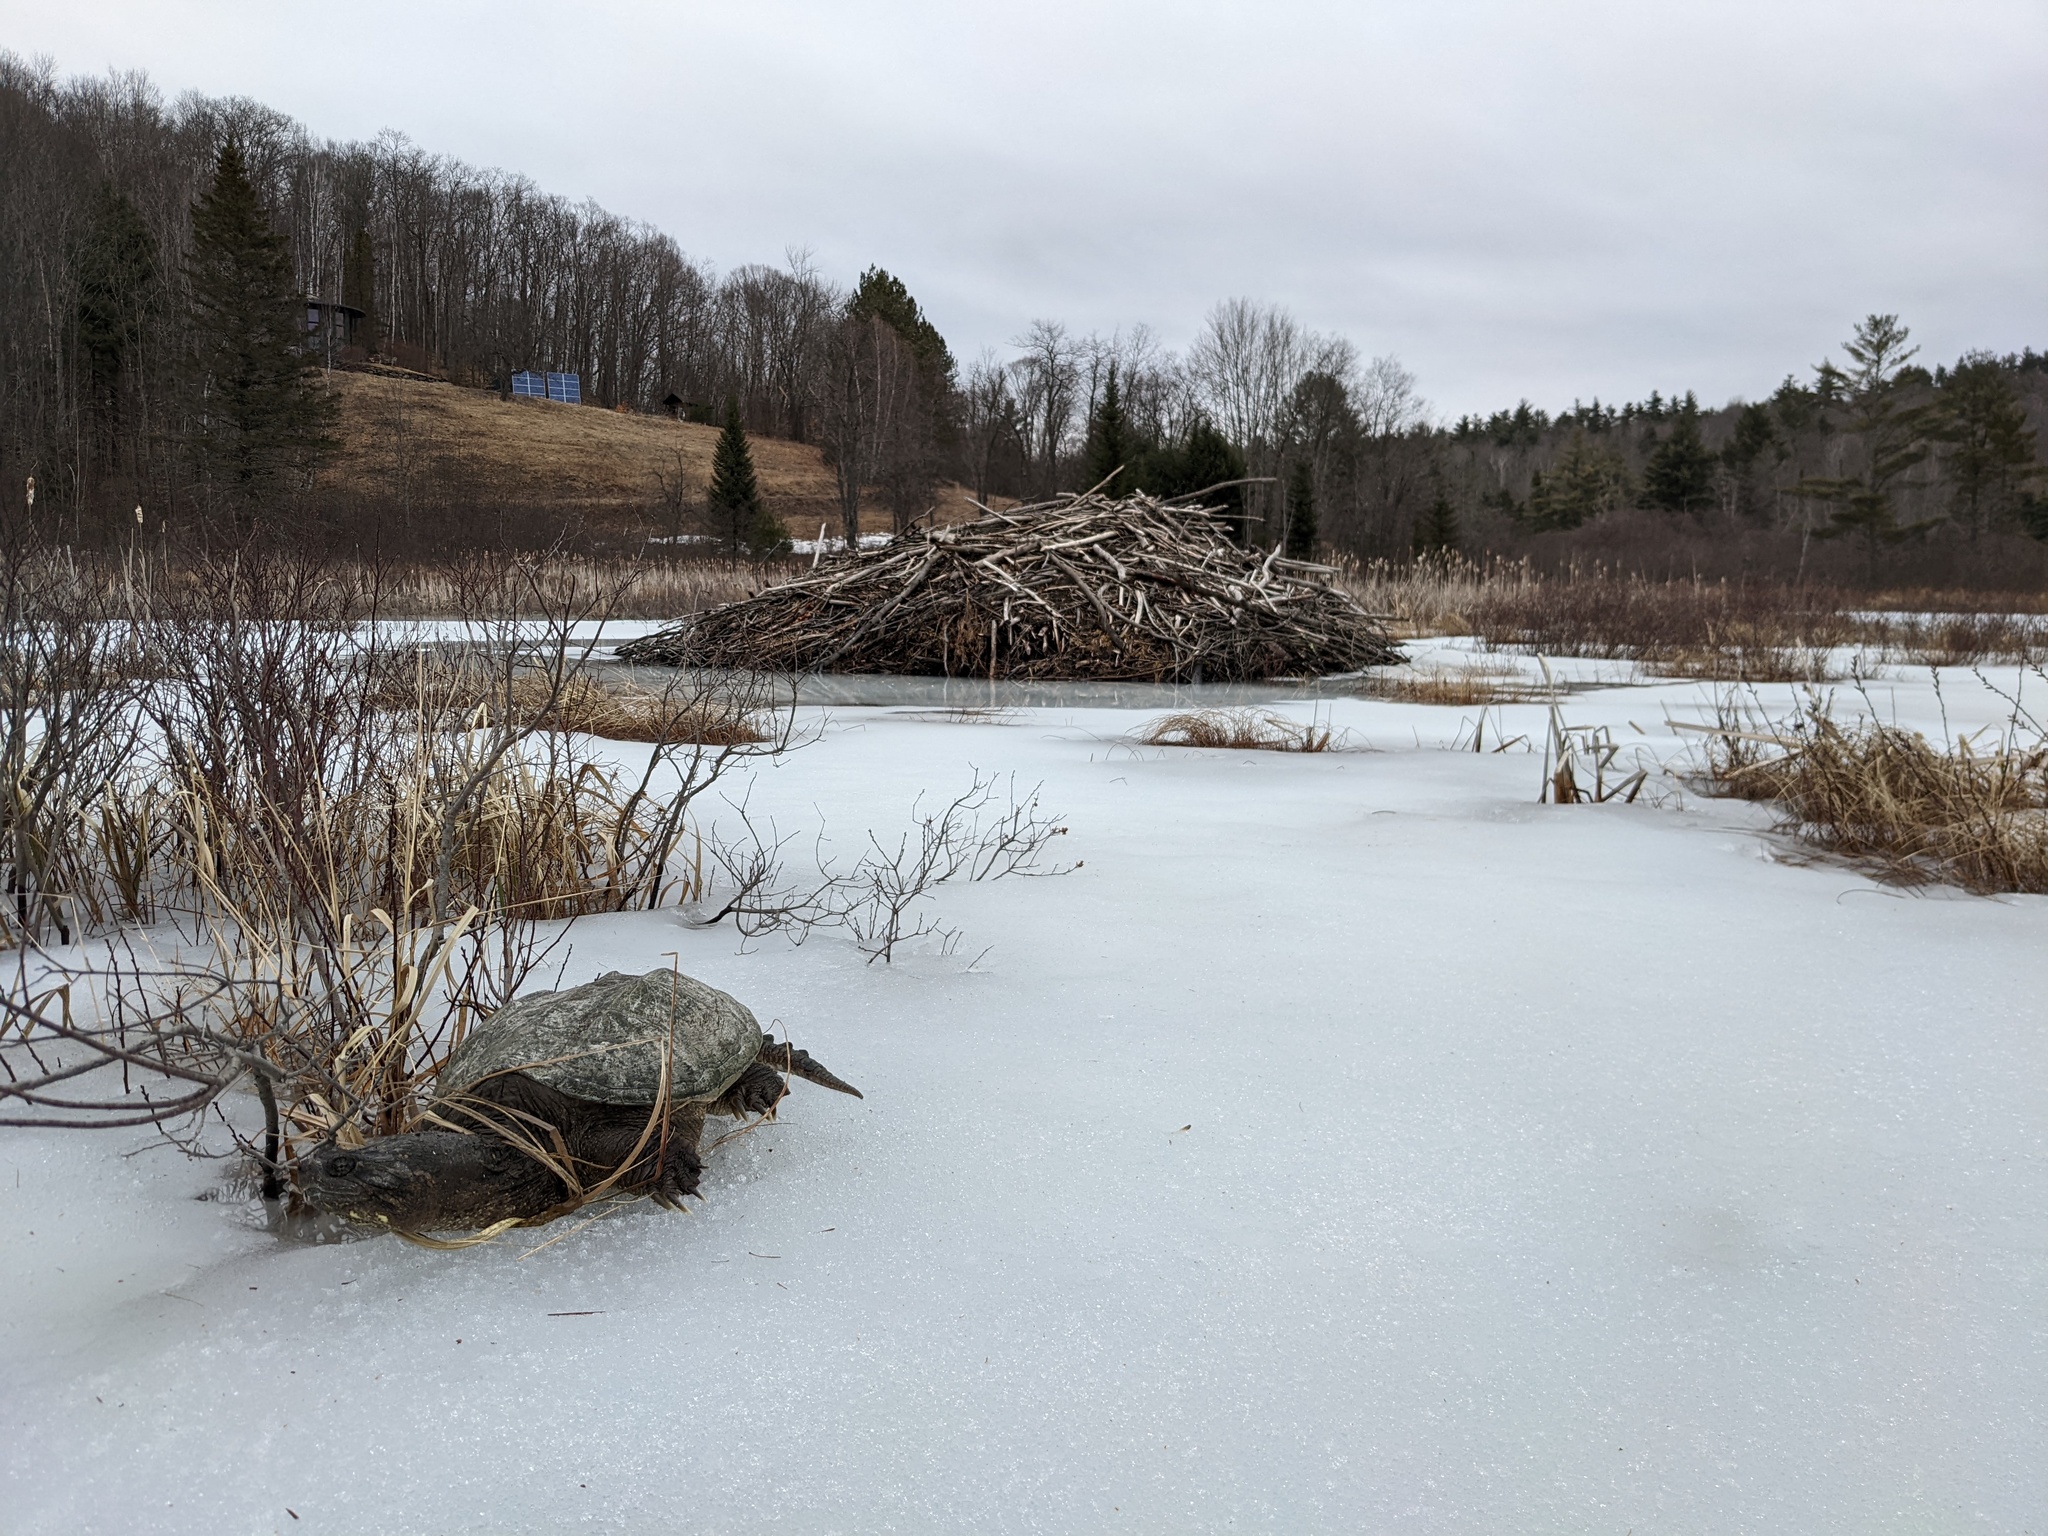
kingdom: Animalia
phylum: Chordata
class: Testudines
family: Chelydridae
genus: Chelydra
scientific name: Chelydra serpentina
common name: Common snapping turtle
